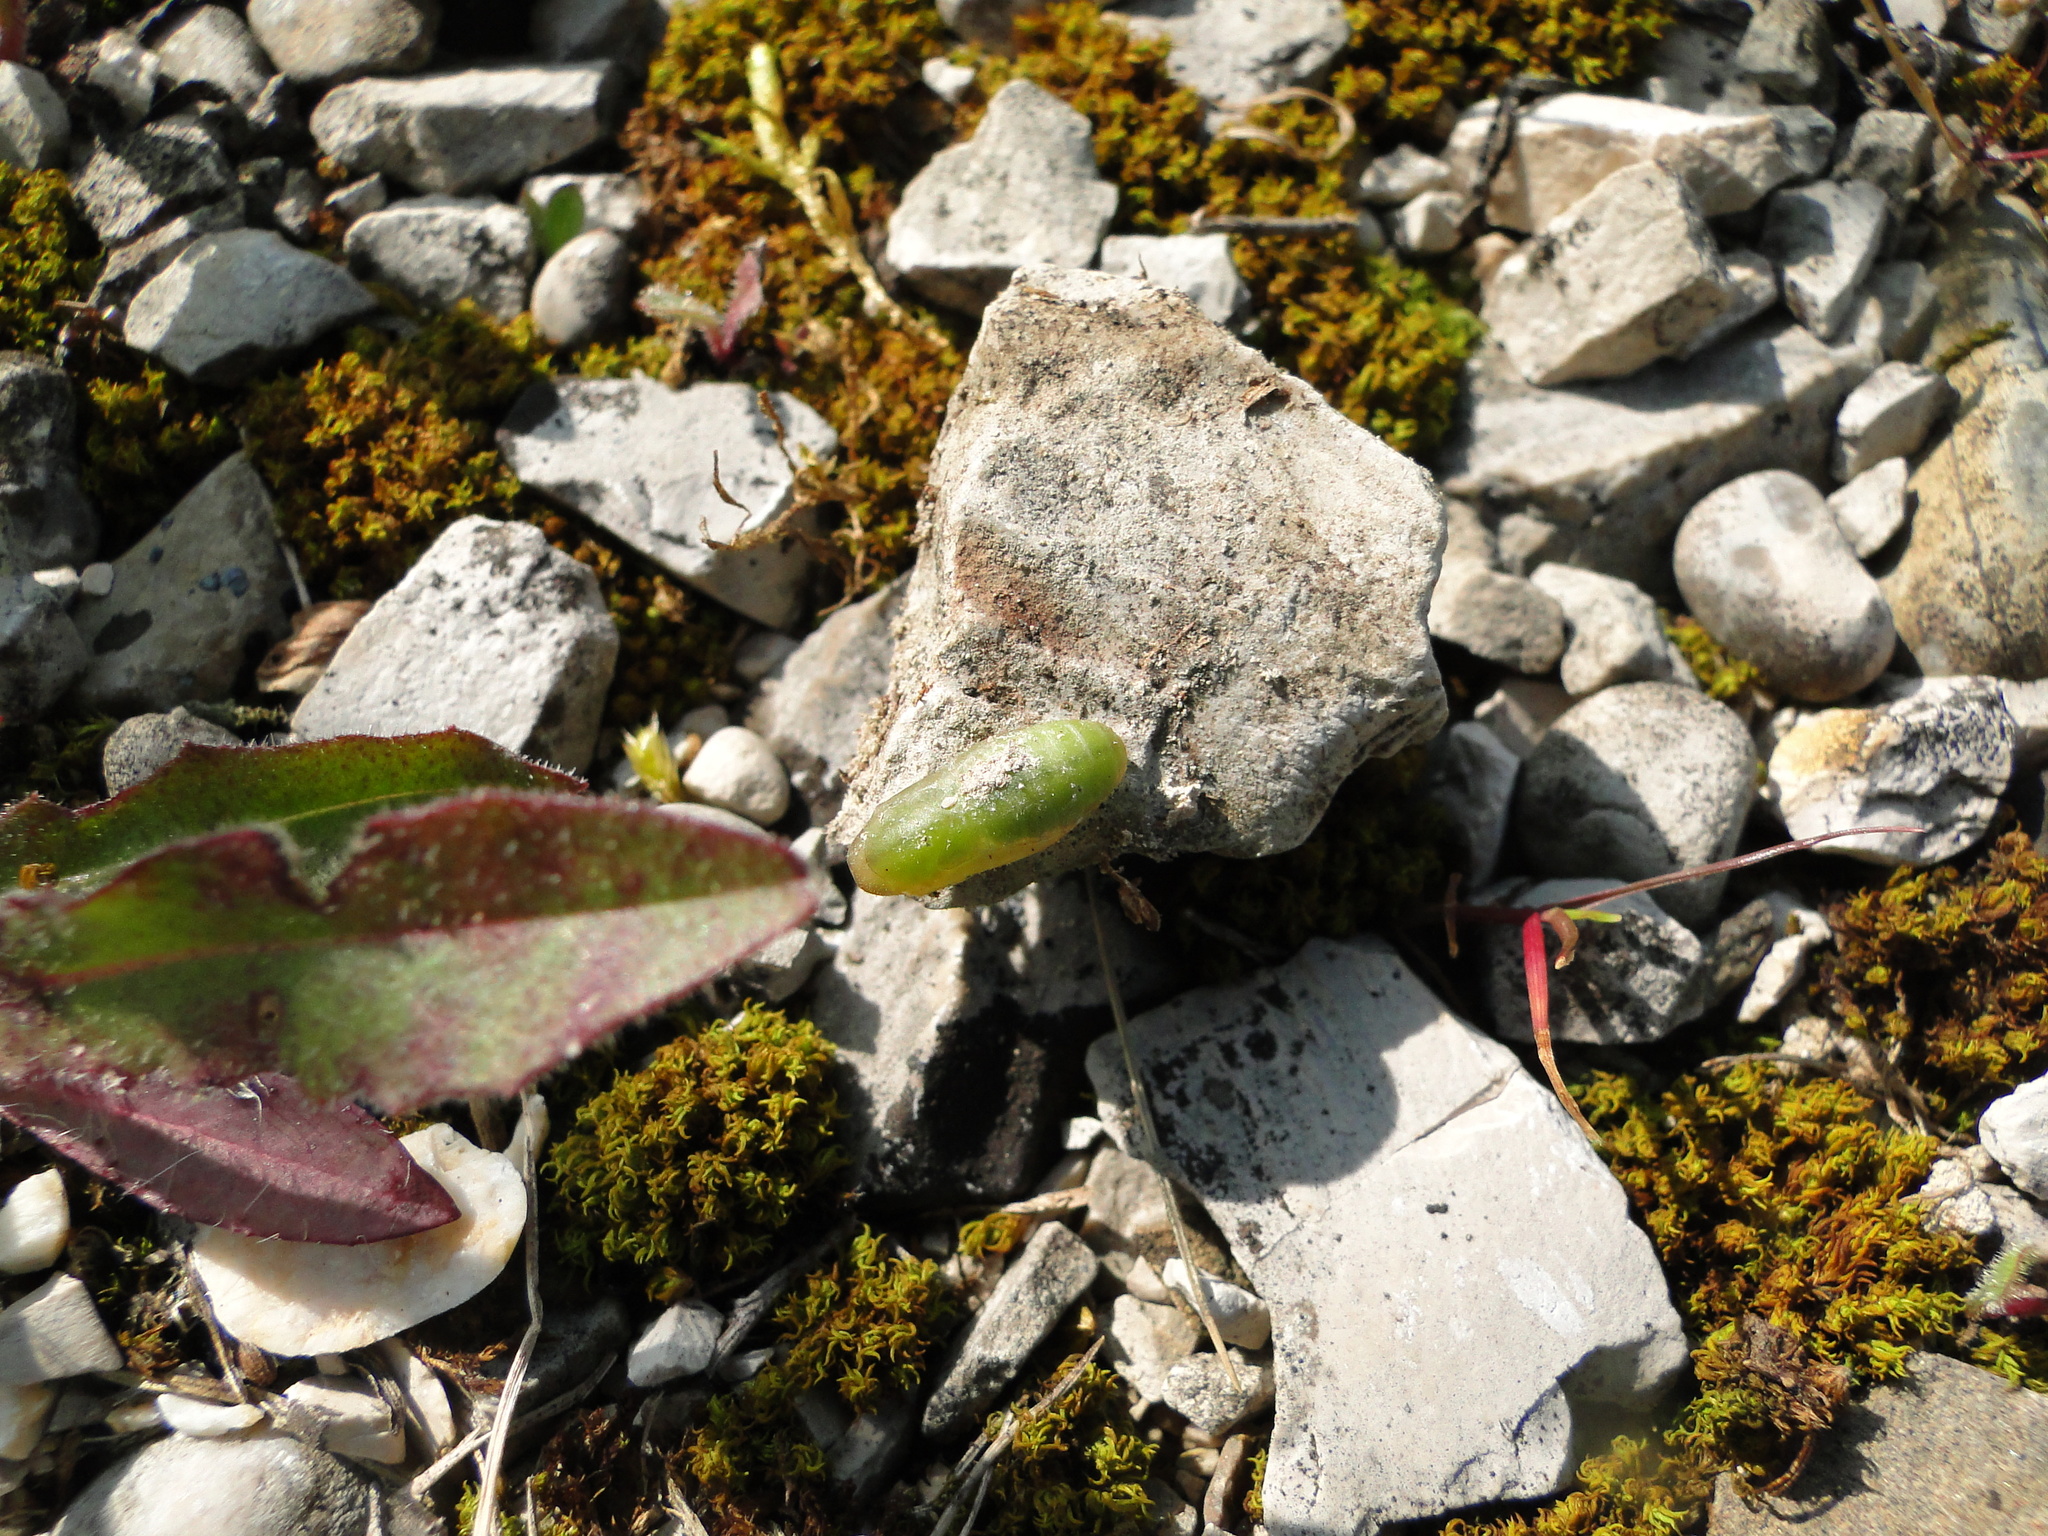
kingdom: Animalia
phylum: Arthropoda
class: Insecta
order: Lepidoptera
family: Lycaenidae
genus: Lycaeides
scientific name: Lycaeides idas
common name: Northern blue
